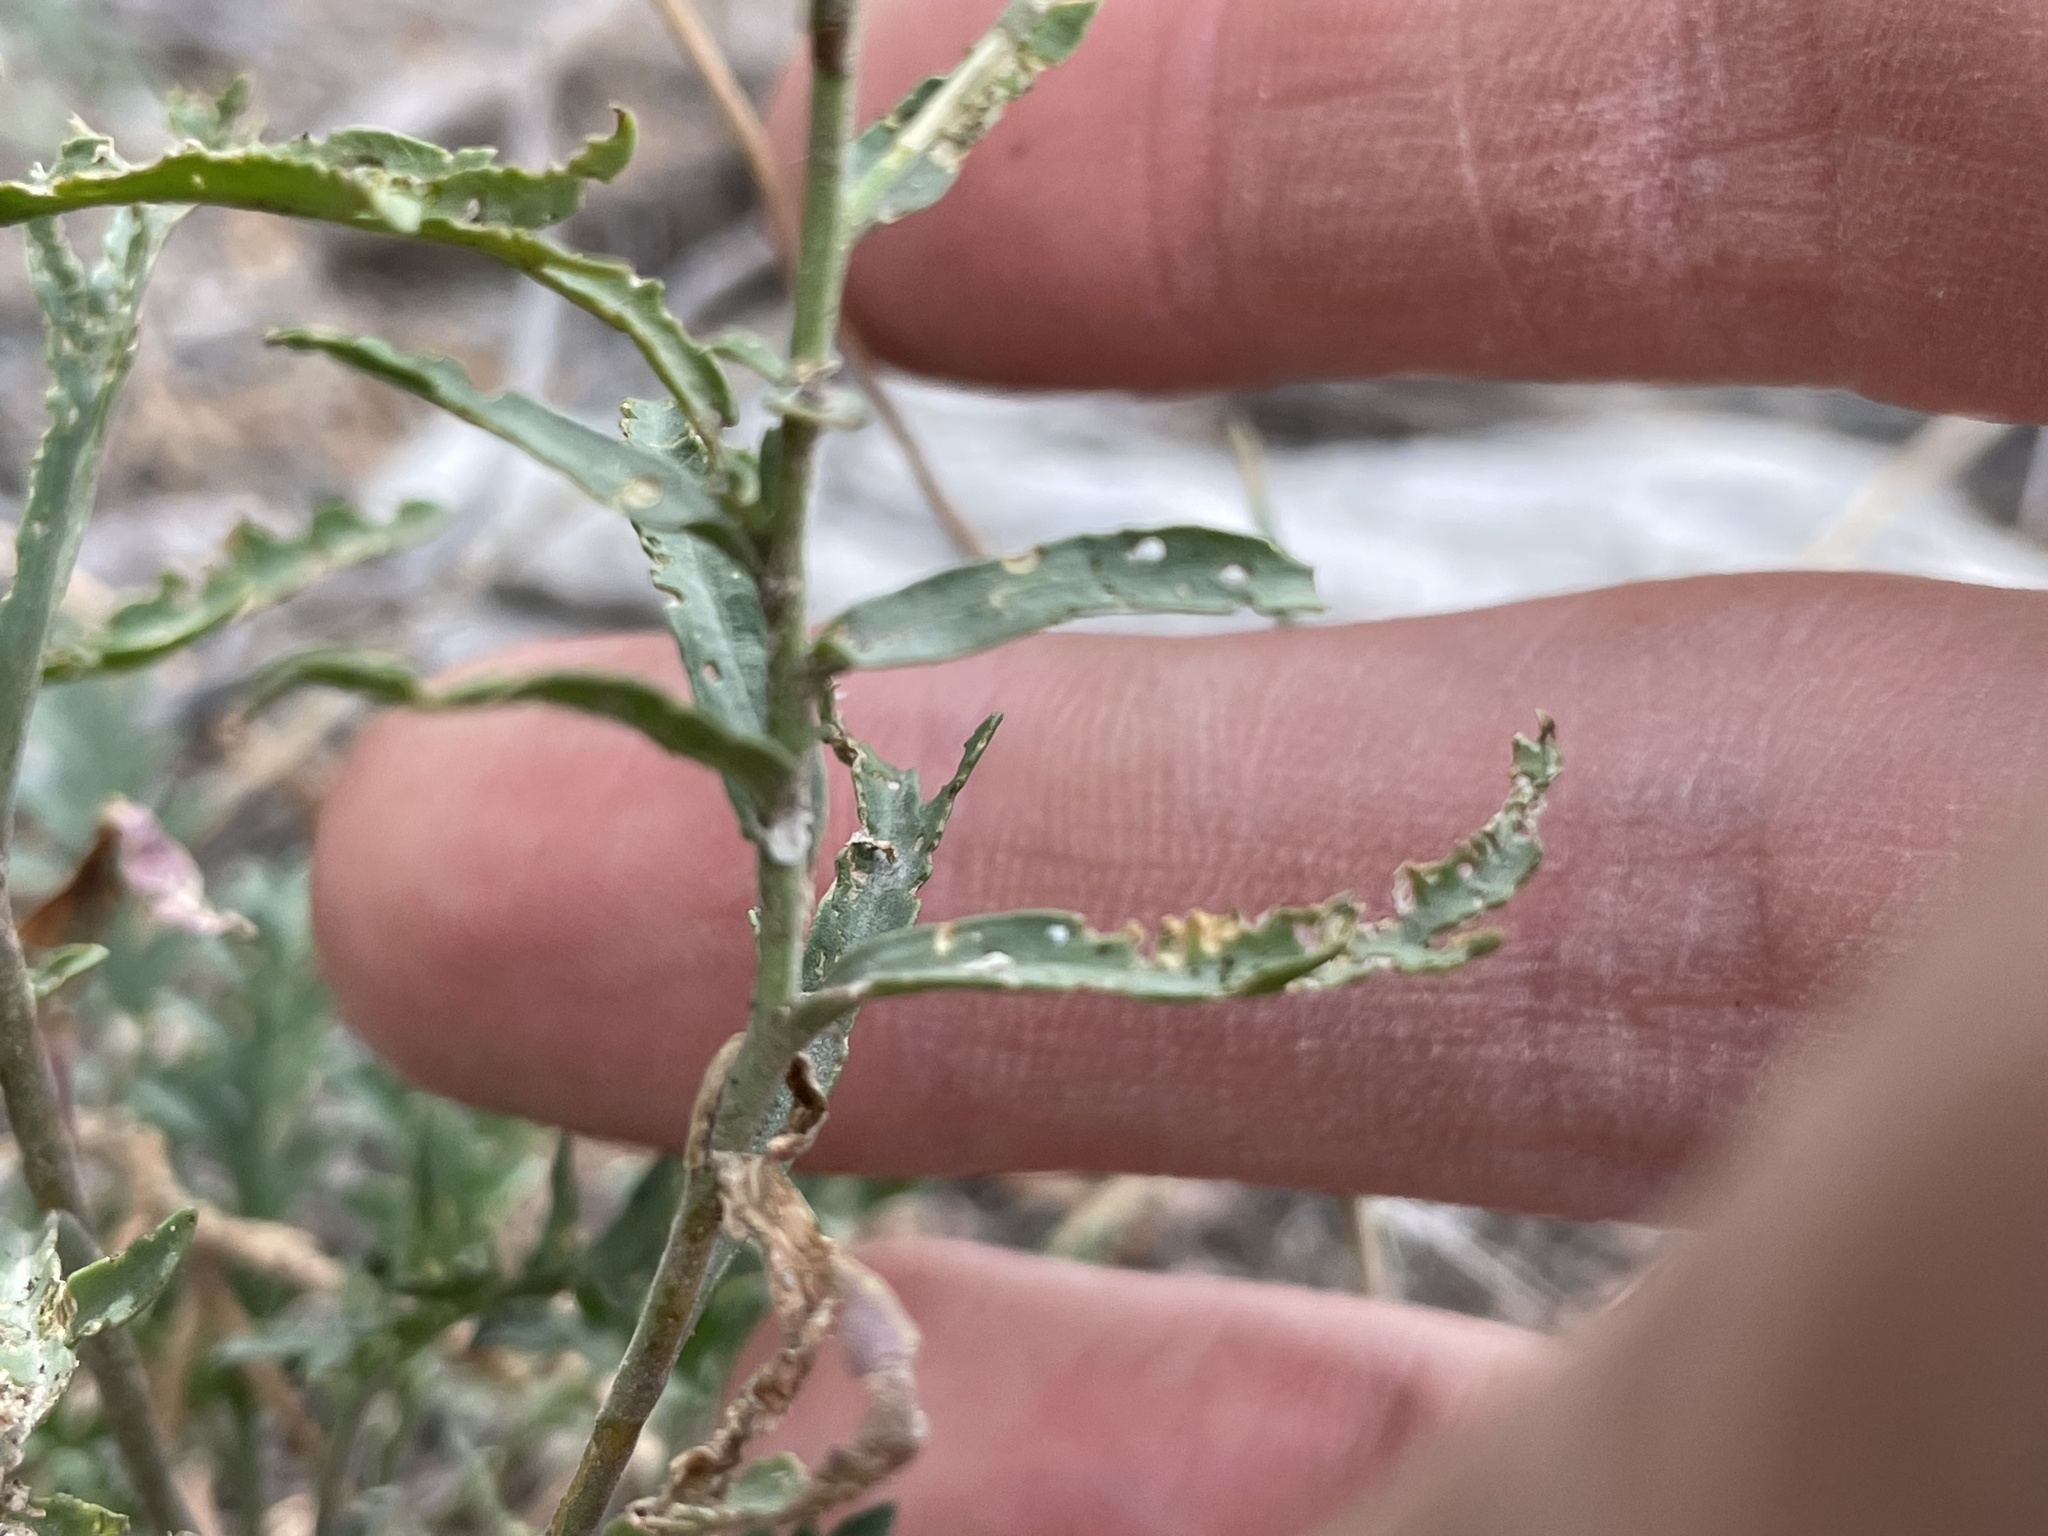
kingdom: Plantae
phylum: Tracheophyta
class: Magnoliopsida
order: Brassicales
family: Brassicaceae
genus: Lepidium
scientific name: Lepidium montanum
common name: Mountain pepperplant
